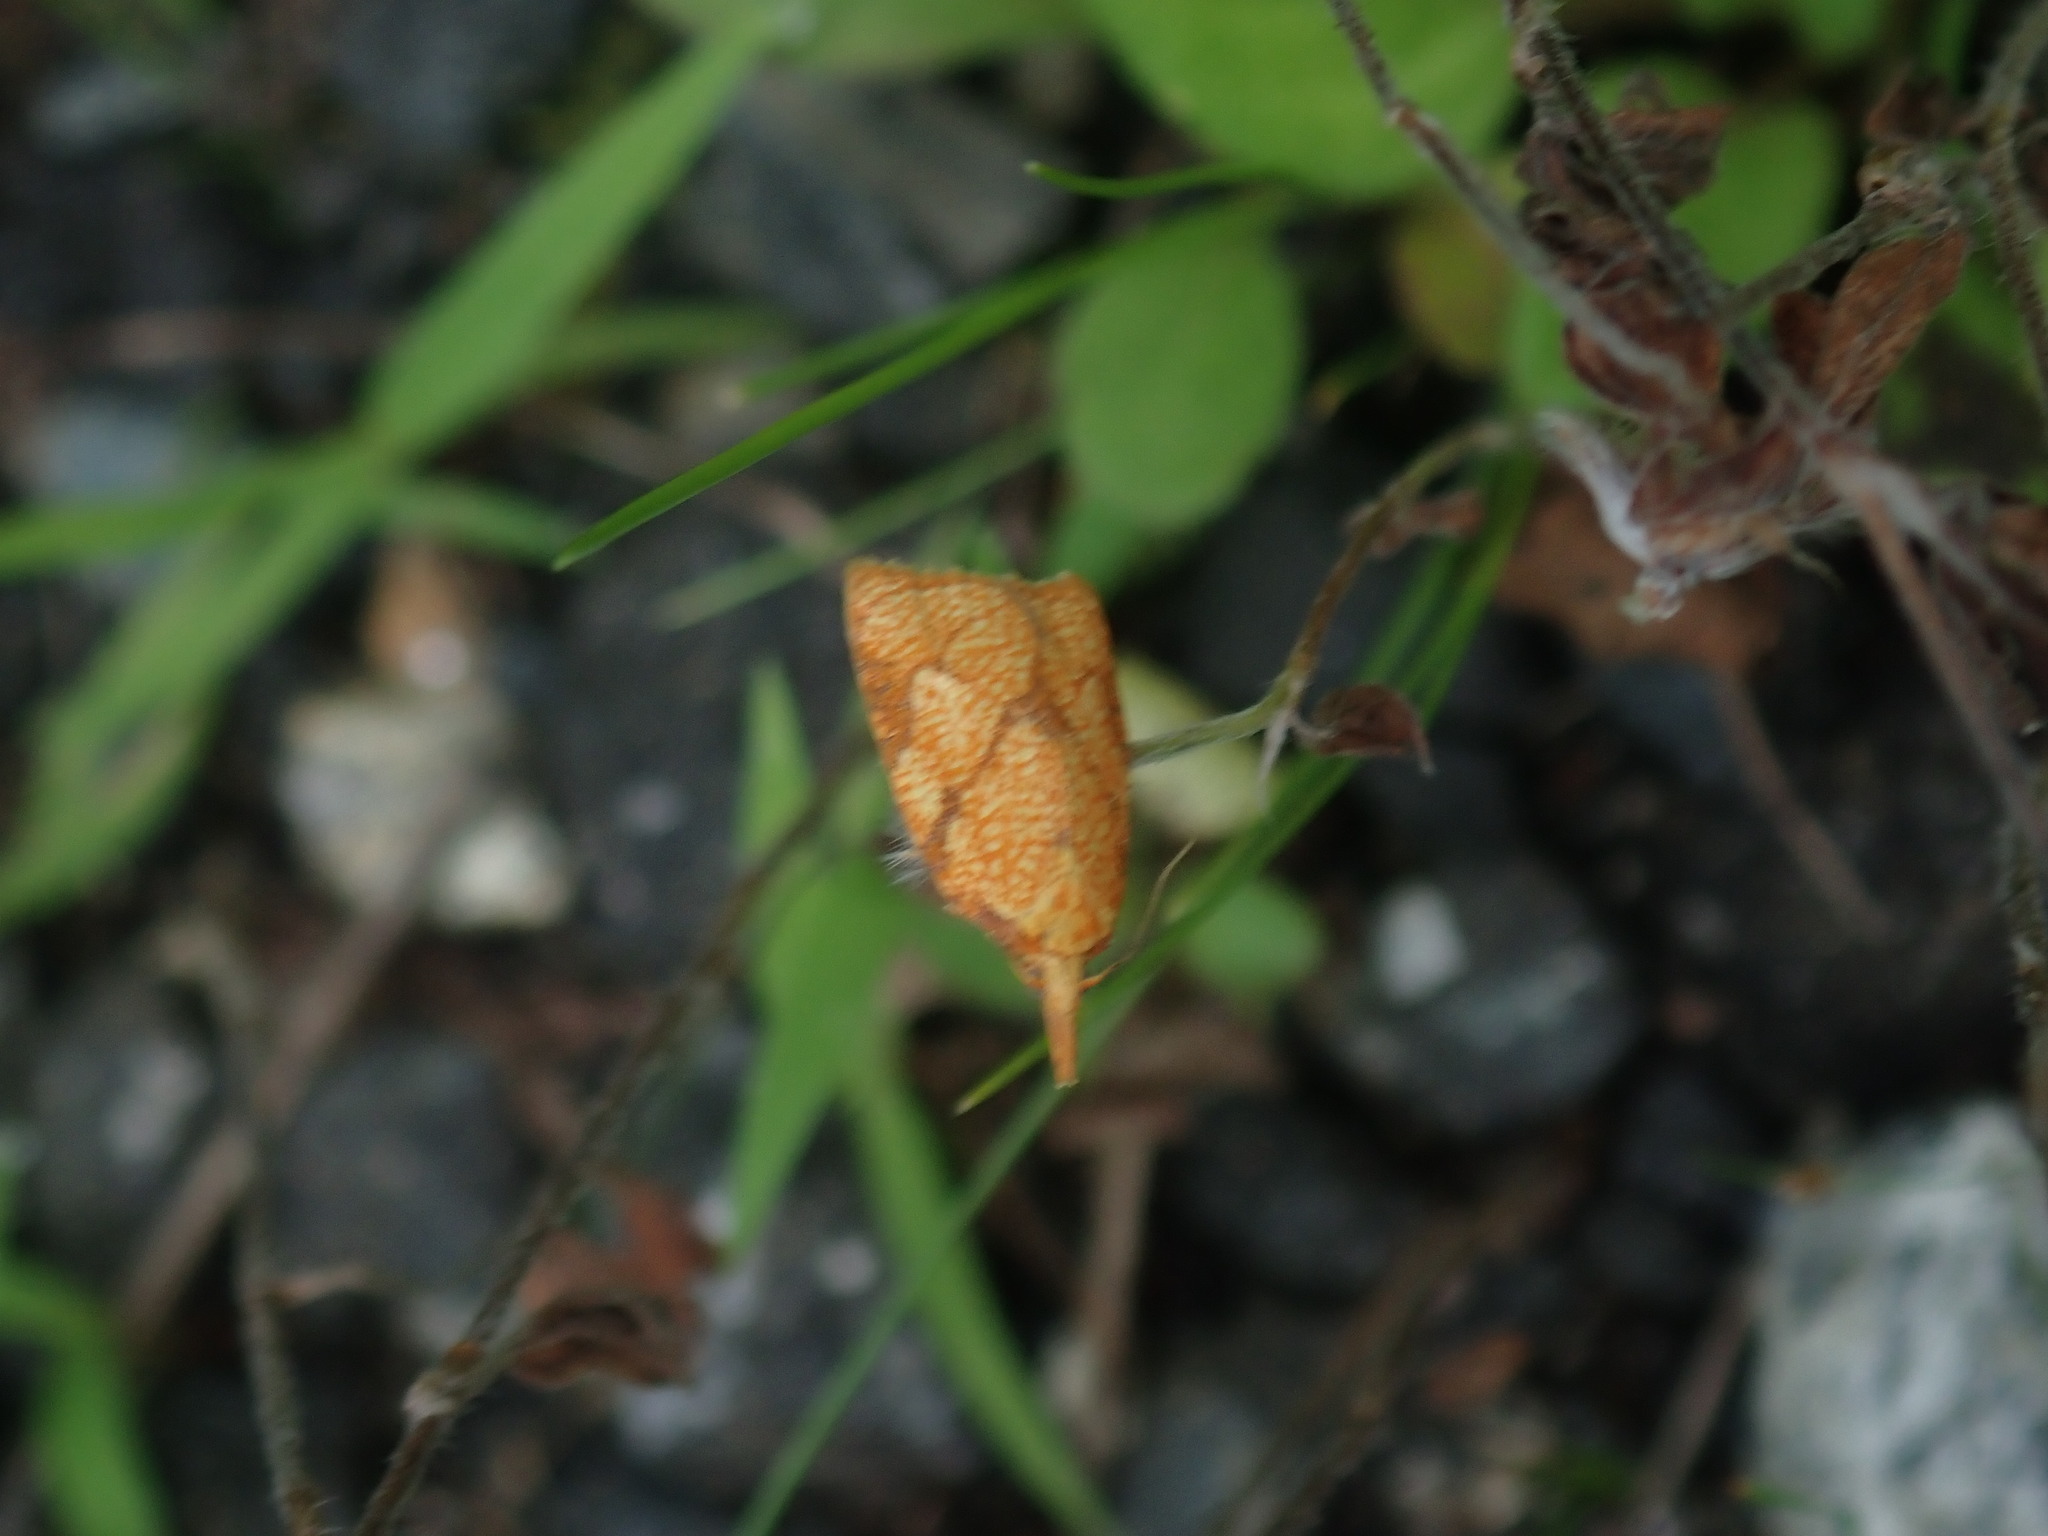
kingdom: Animalia
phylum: Arthropoda
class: Insecta
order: Lepidoptera
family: Tortricidae
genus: Cenopis
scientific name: Cenopis reticulatana
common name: Reticulated fruitworm moth
